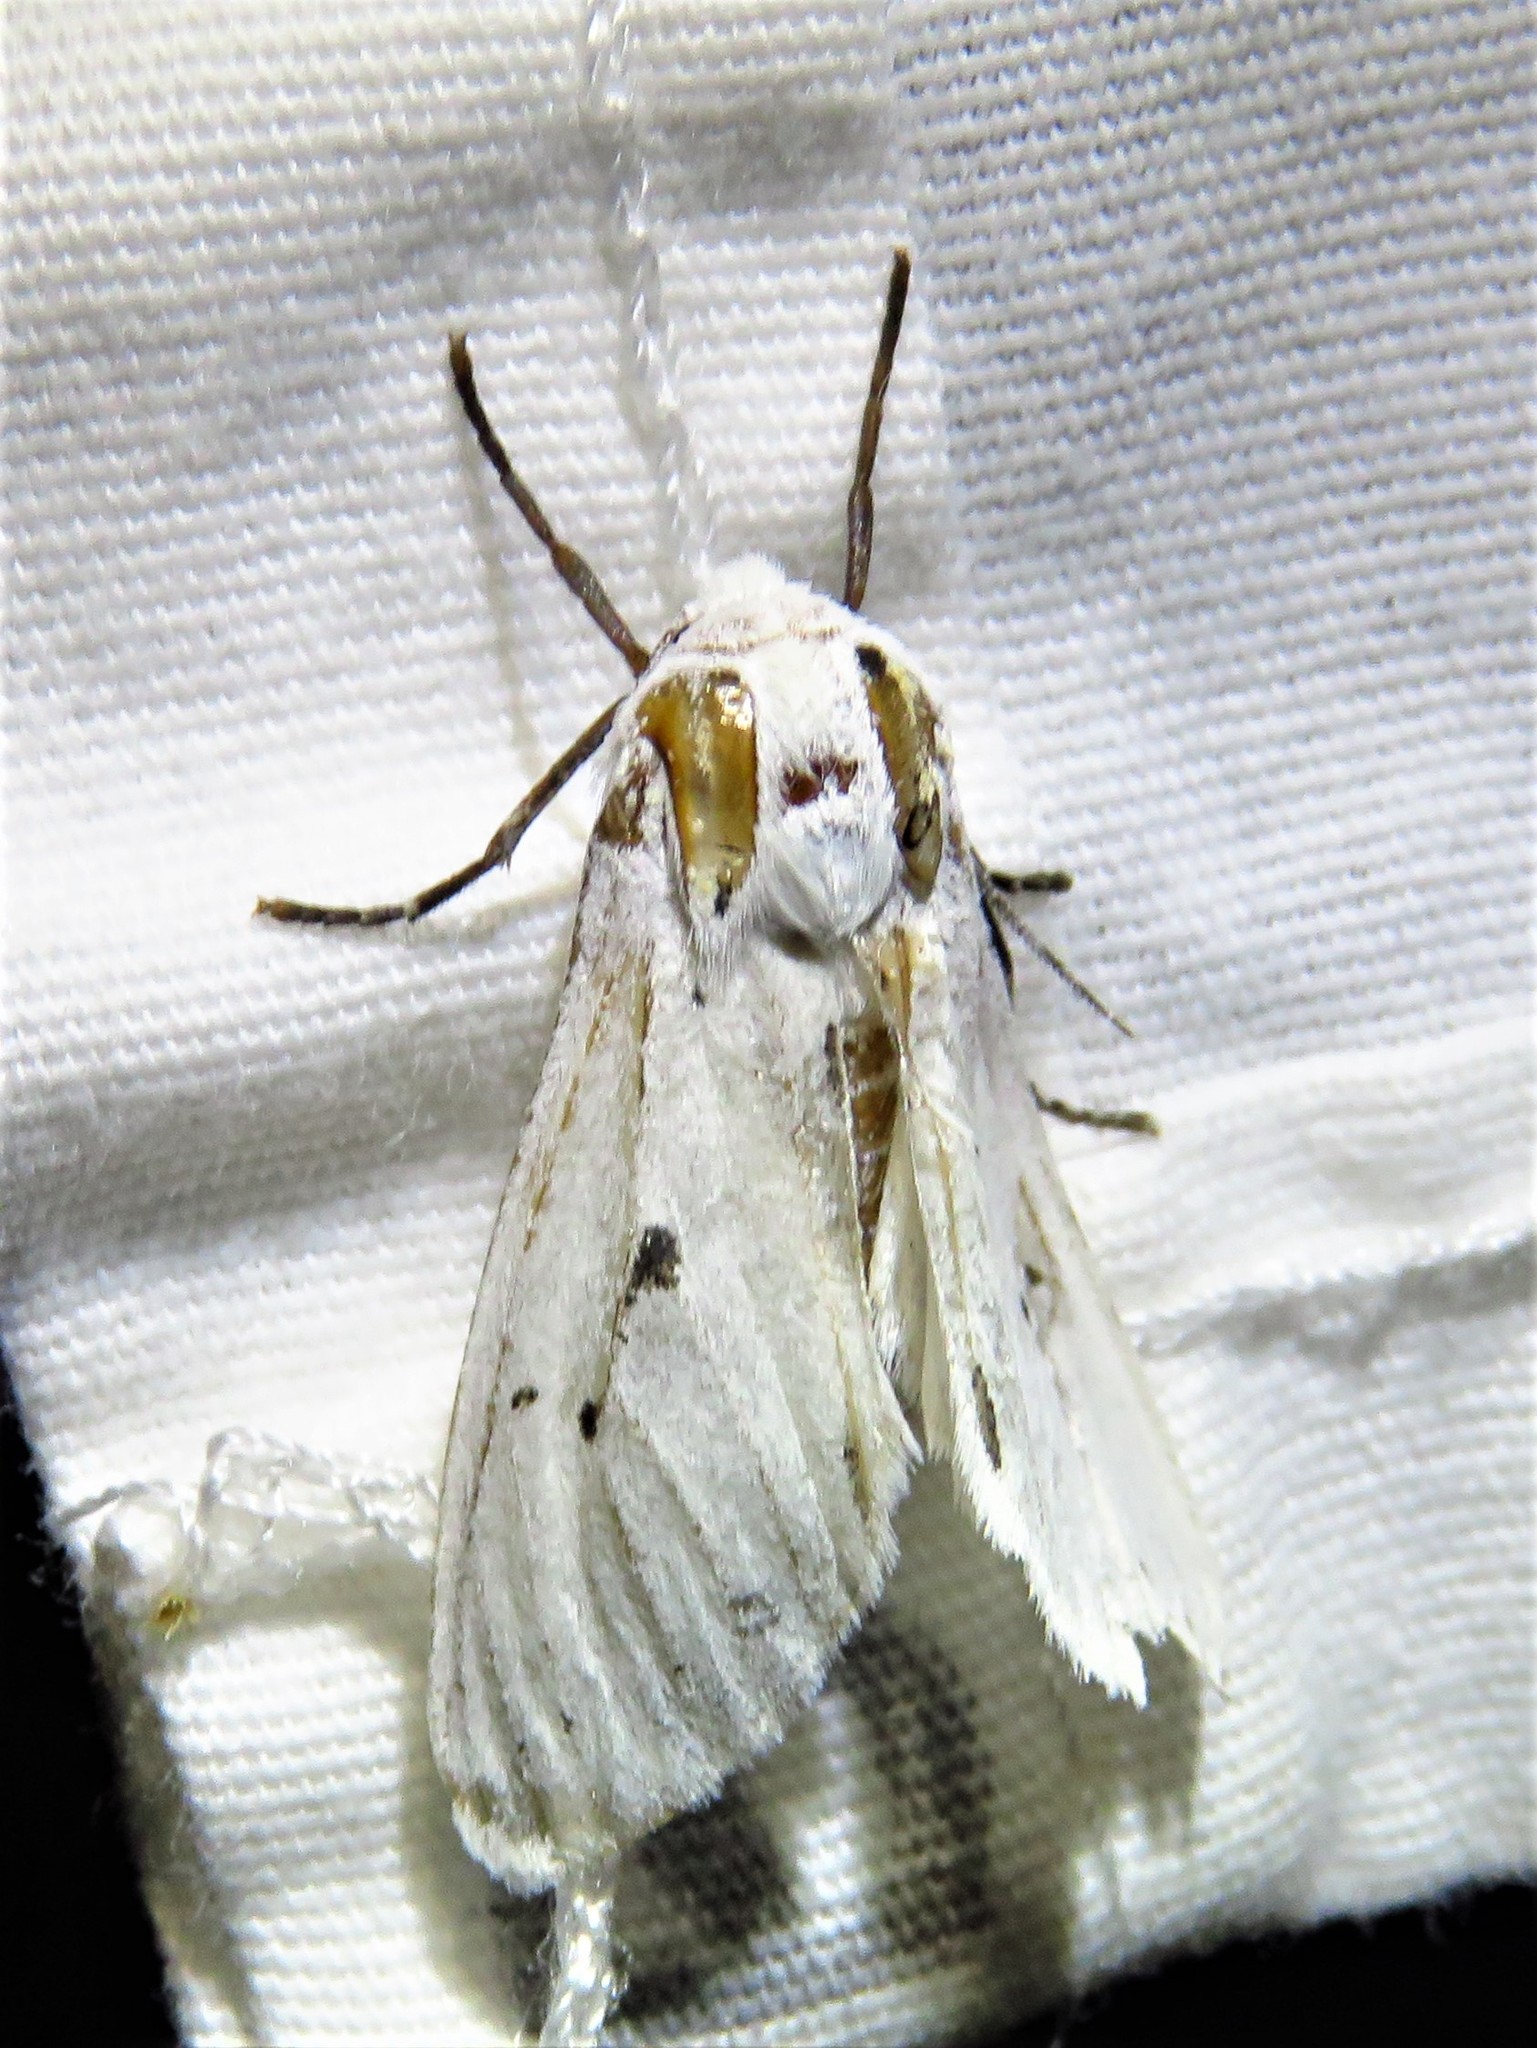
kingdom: Animalia
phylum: Arthropoda
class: Insecta
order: Lepidoptera
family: Erebidae
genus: Ectypia
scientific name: Ectypia bivittata
